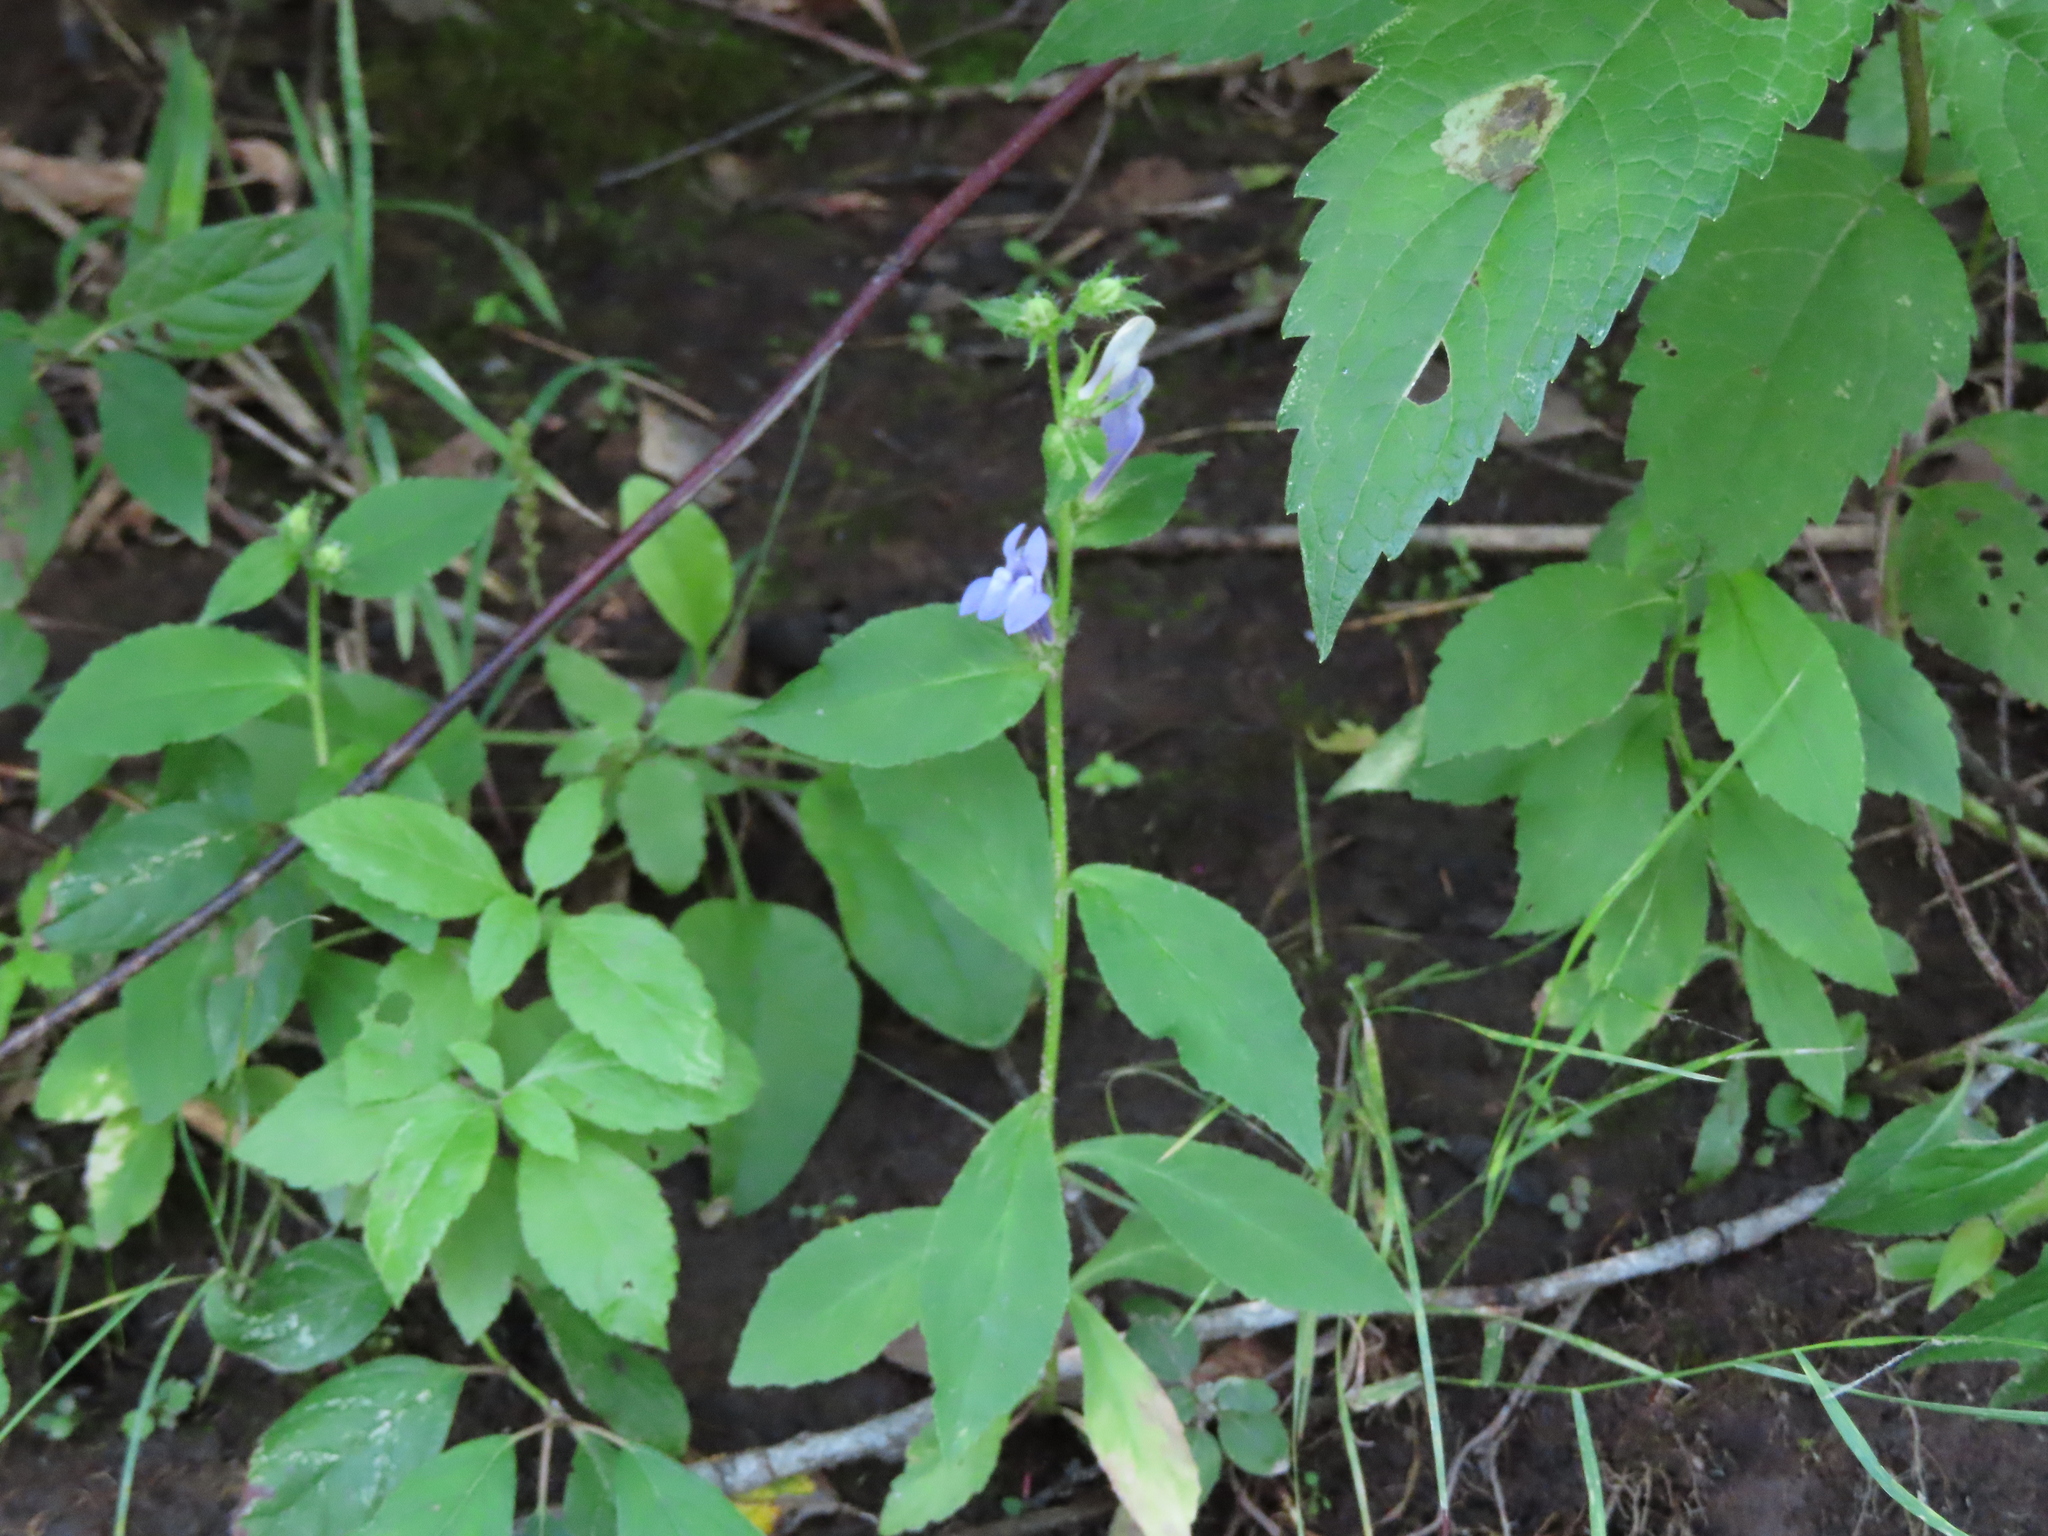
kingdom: Plantae
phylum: Tracheophyta
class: Magnoliopsida
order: Asterales
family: Campanulaceae
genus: Lobelia
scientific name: Lobelia siphilitica
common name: Great lobelia
